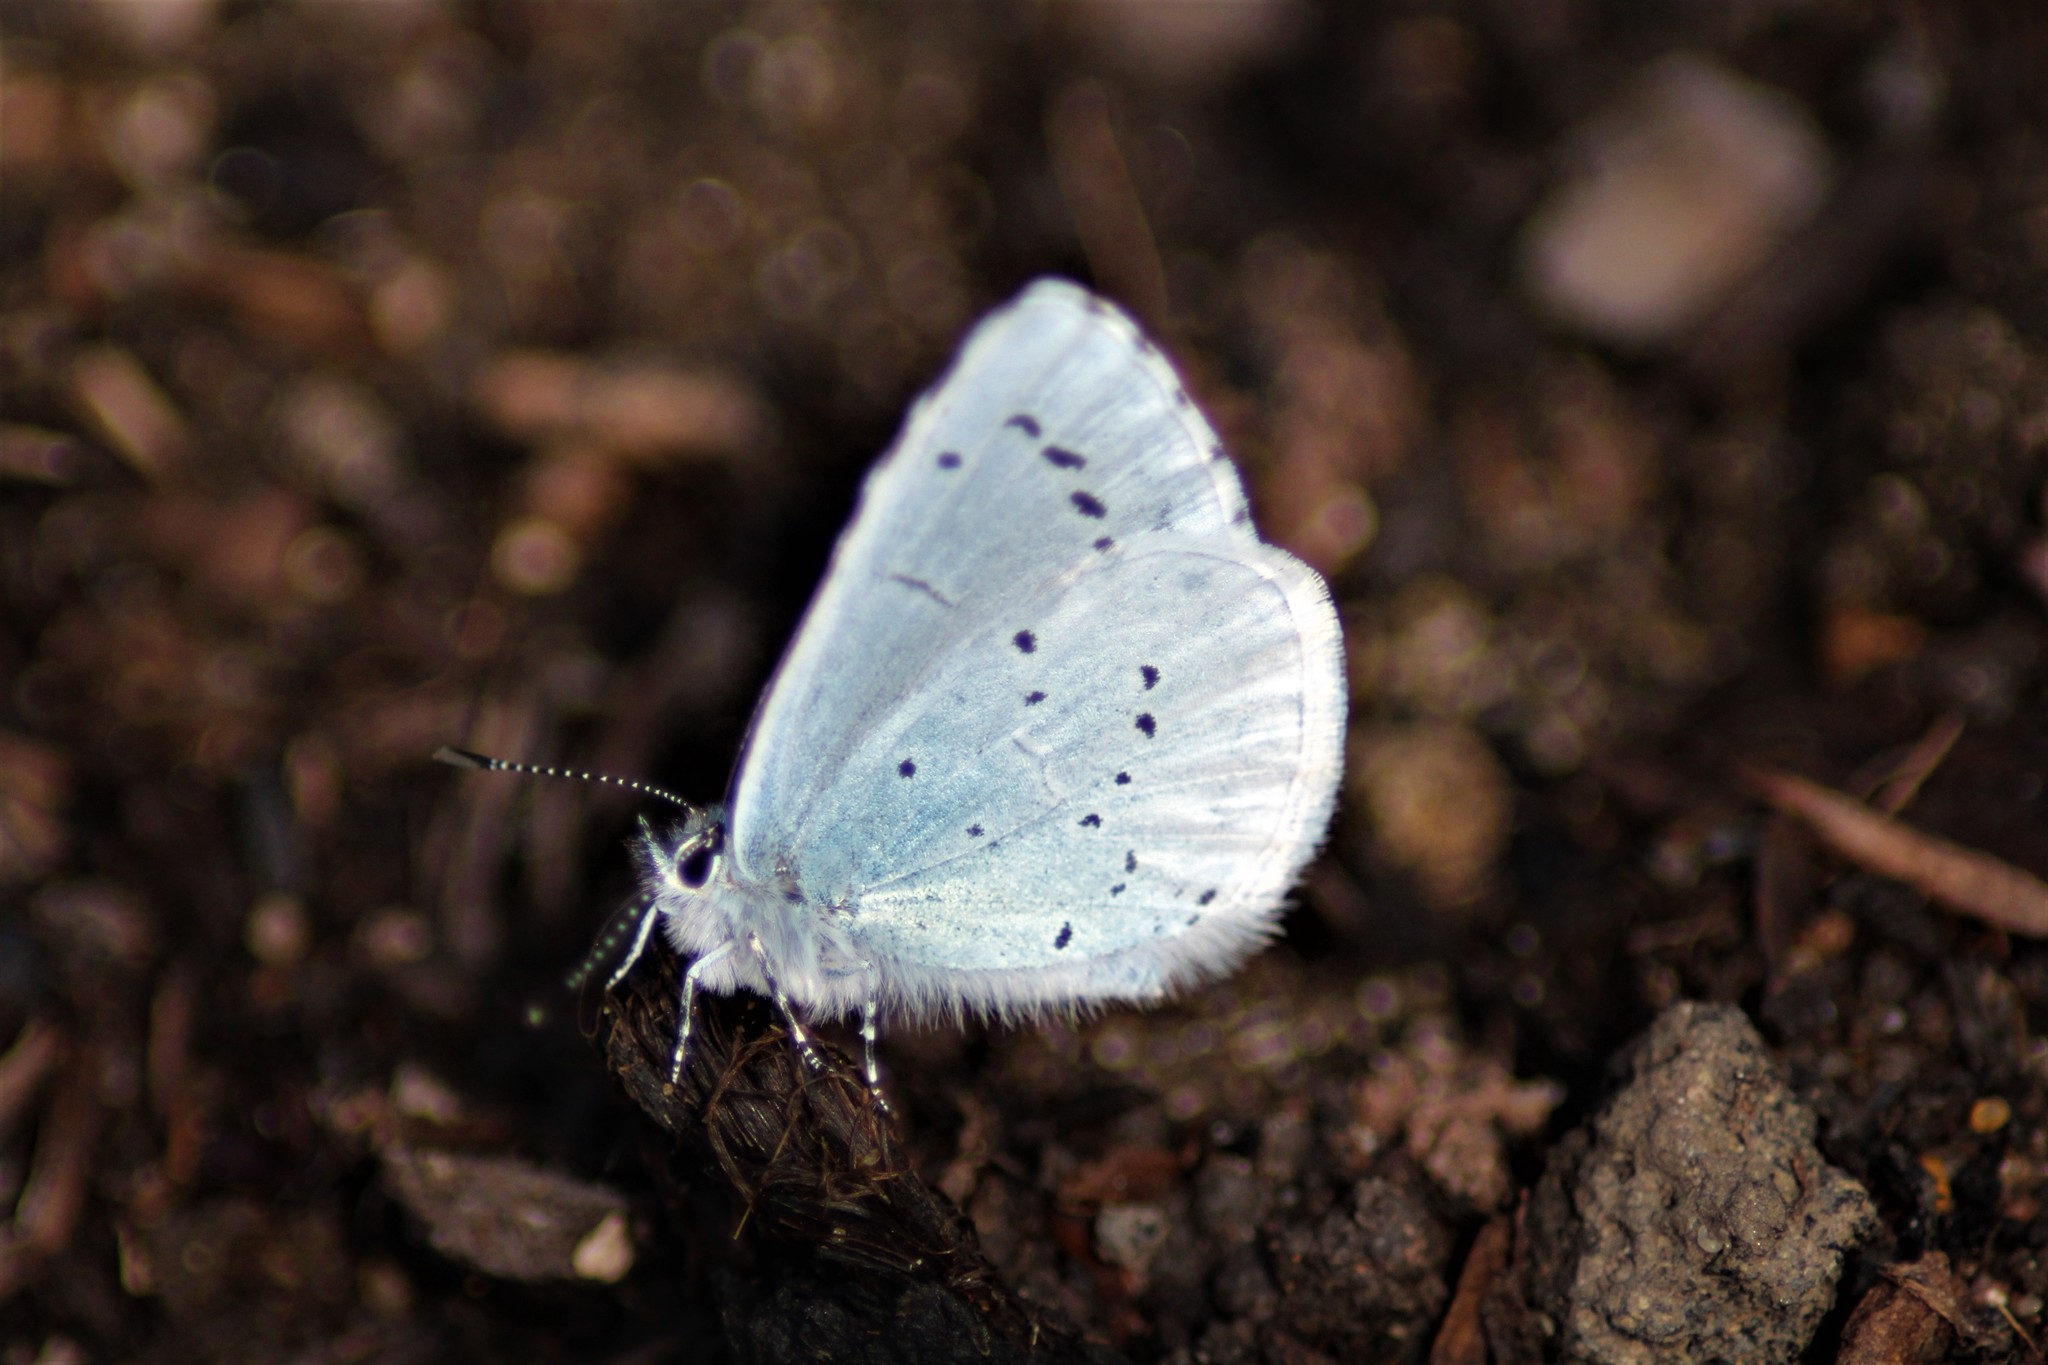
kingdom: Animalia
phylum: Arthropoda
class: Insecta
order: Lepidoptera
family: Lycaenidae
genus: Celastrina
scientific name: Celastrina argiolus
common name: Holly blue
